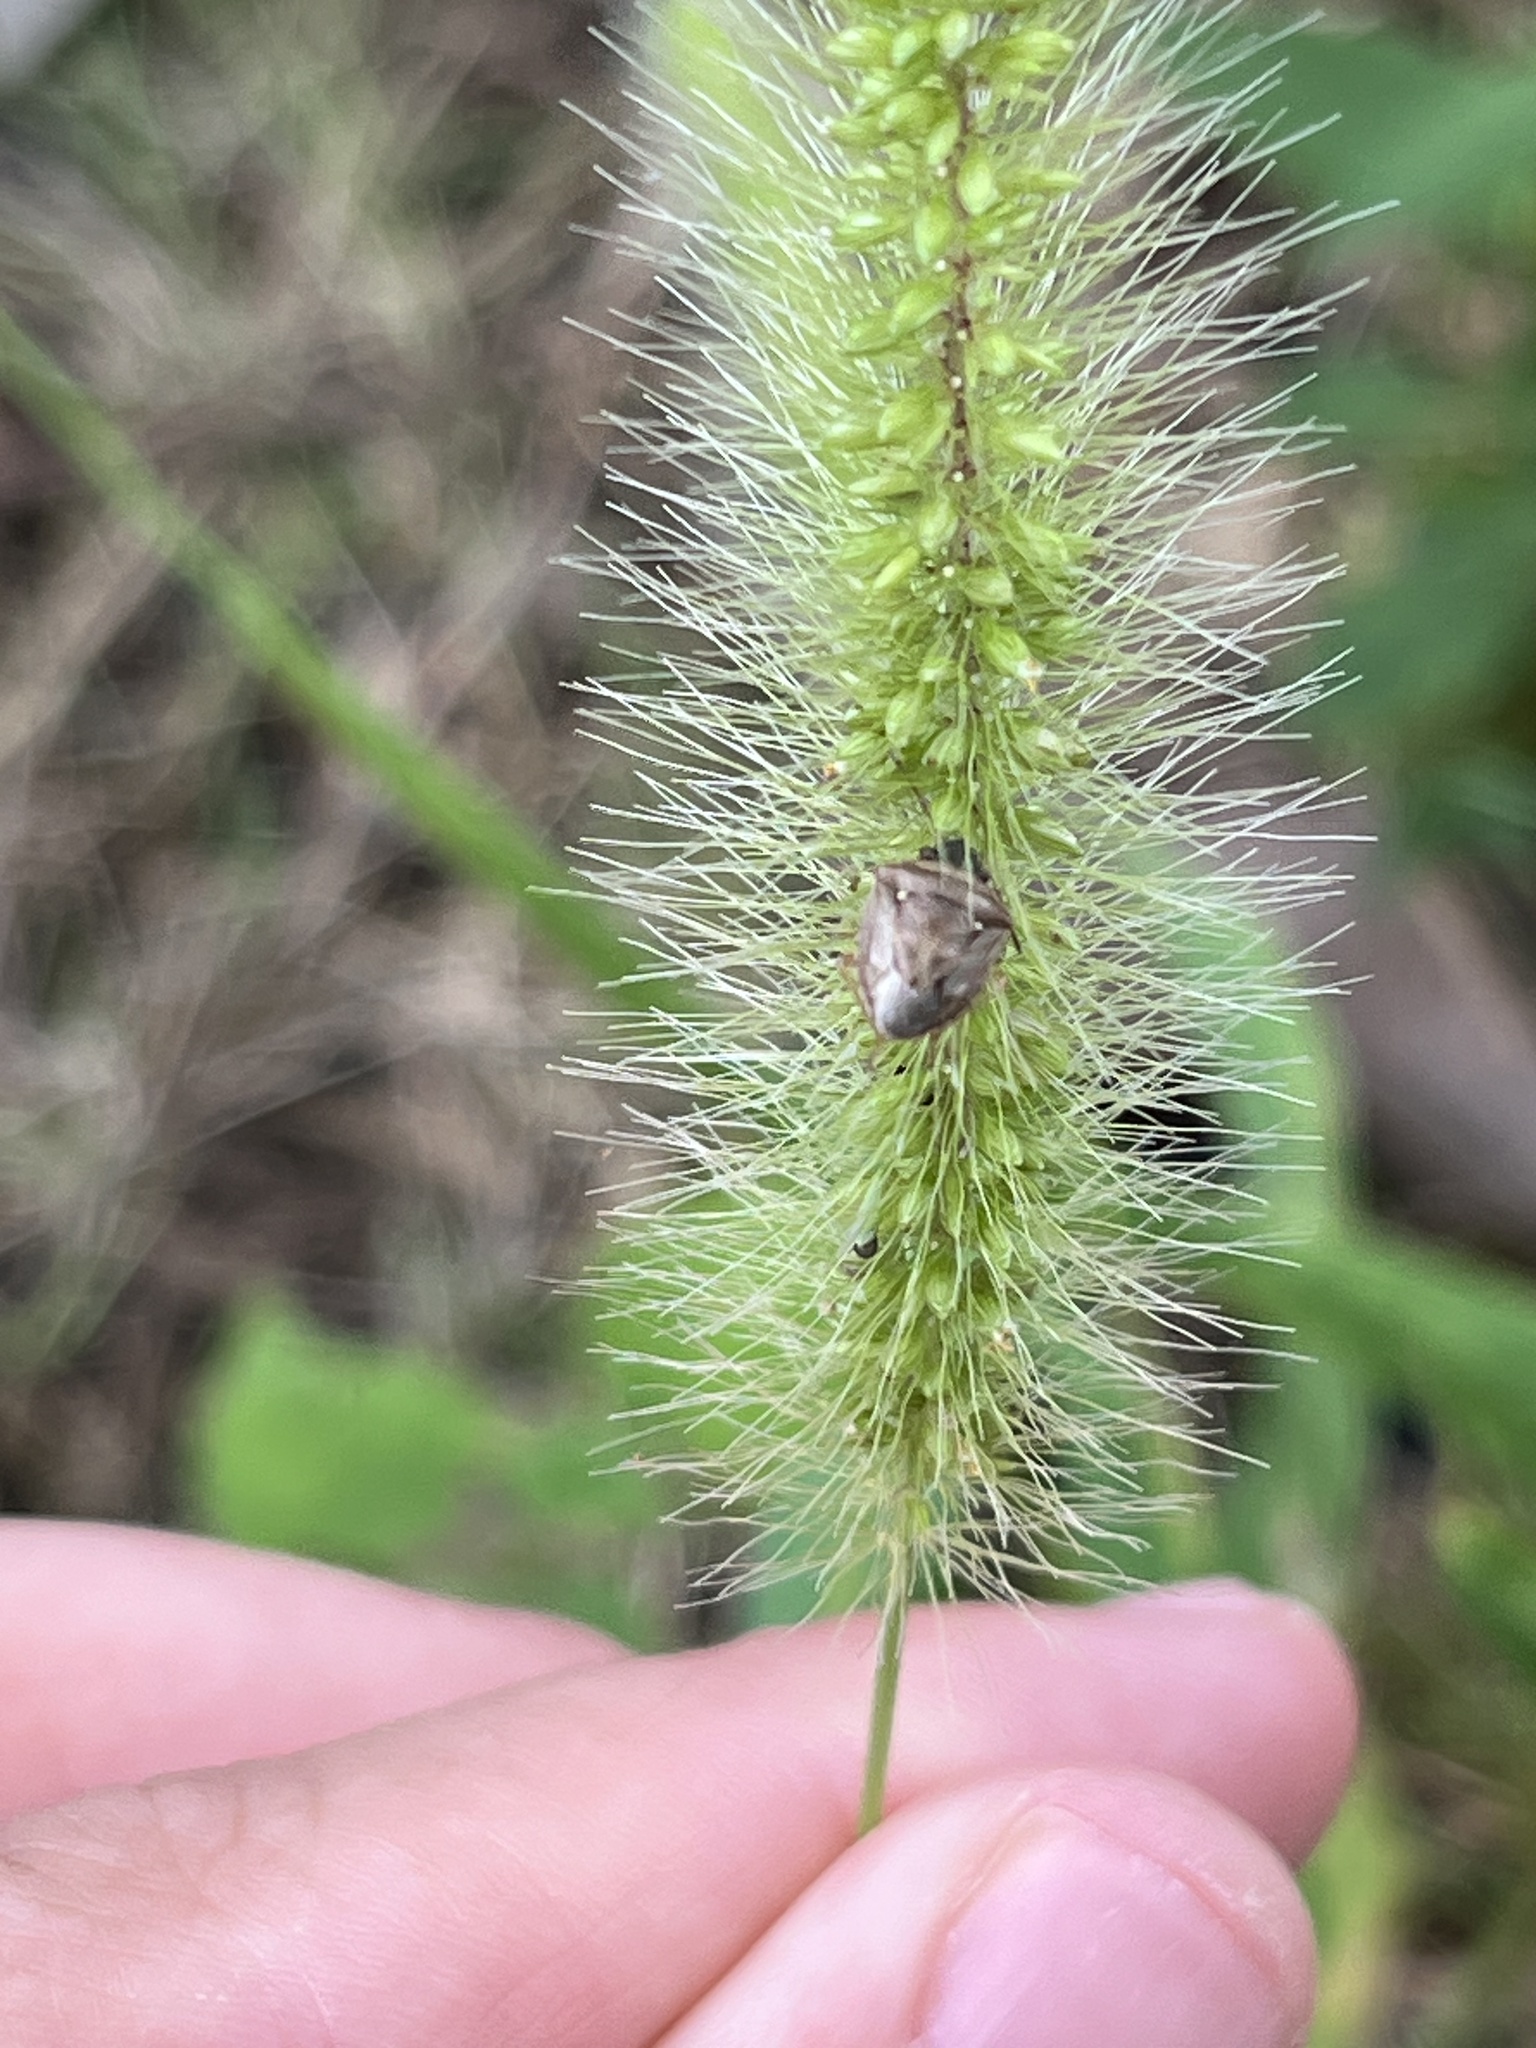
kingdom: Animalia
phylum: Arthropoda
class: Insecta
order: Hemiptera
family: Pentatomidae
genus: Eysarcoris
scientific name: Eysarcoris ventralis
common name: White-spotted stink bug
